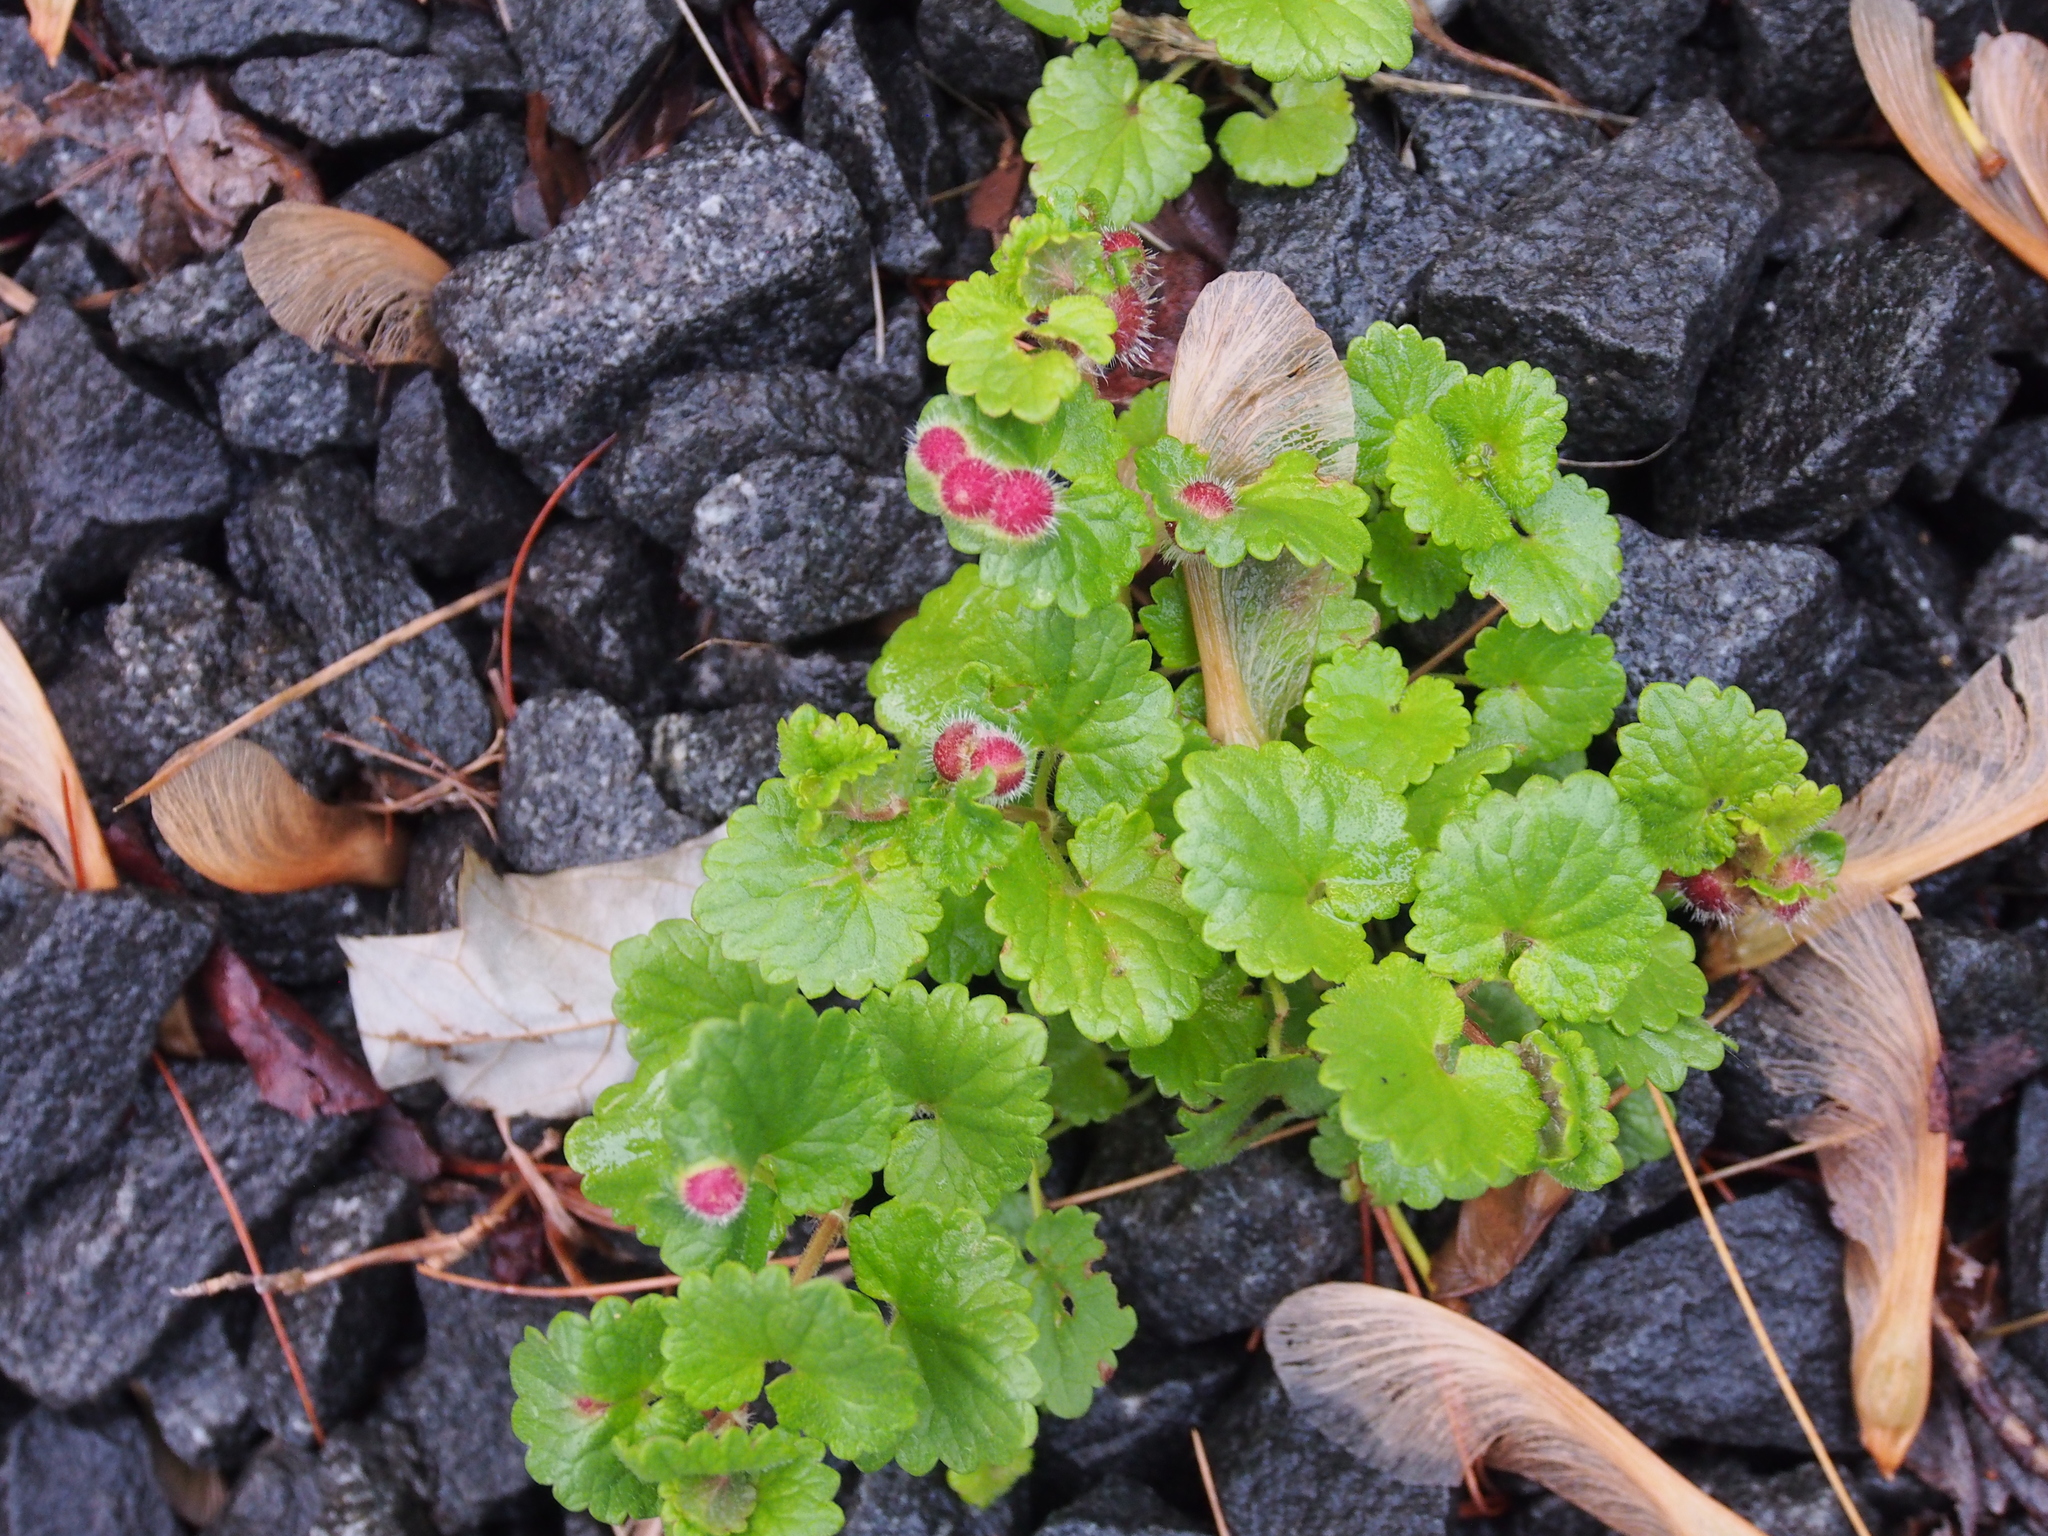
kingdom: Animalia
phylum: Arthropoda
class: Insecta
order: Hymenoptera
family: Cynipidae
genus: Liposthenes
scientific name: Liposthenes glechomae
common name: Gall wasp
